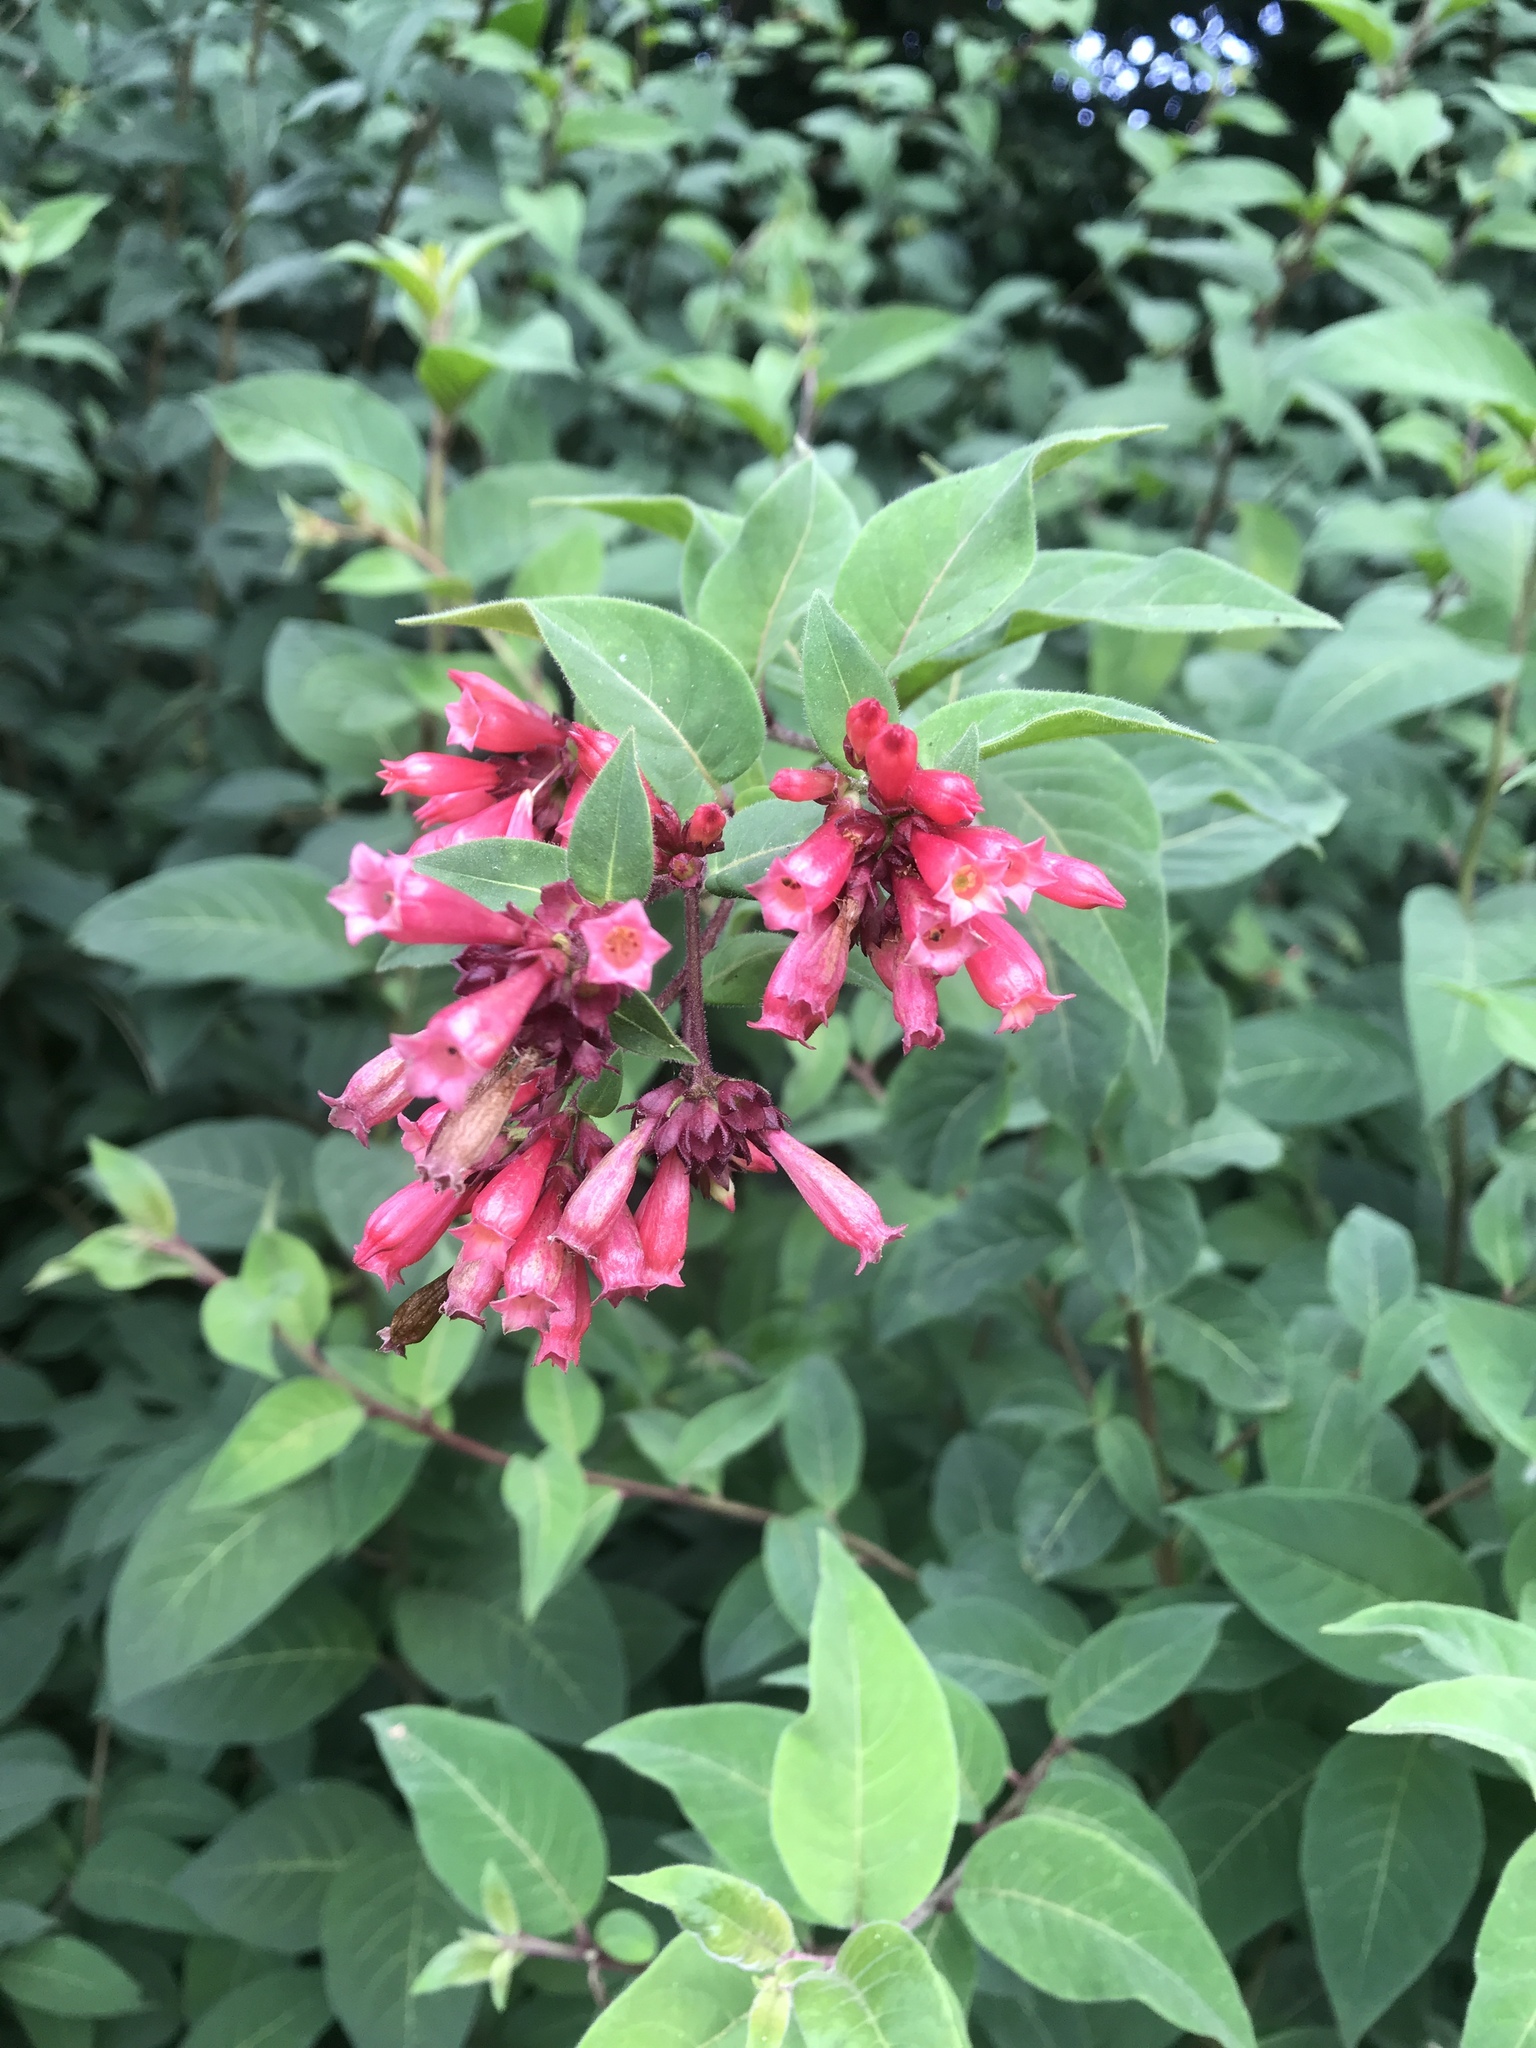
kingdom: Plantae
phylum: Tracheophyta
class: Magnoliopsida
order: Solanales
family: Solanaceae
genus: Cestrum
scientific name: Cestrum elegans
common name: Crimson cestrum
